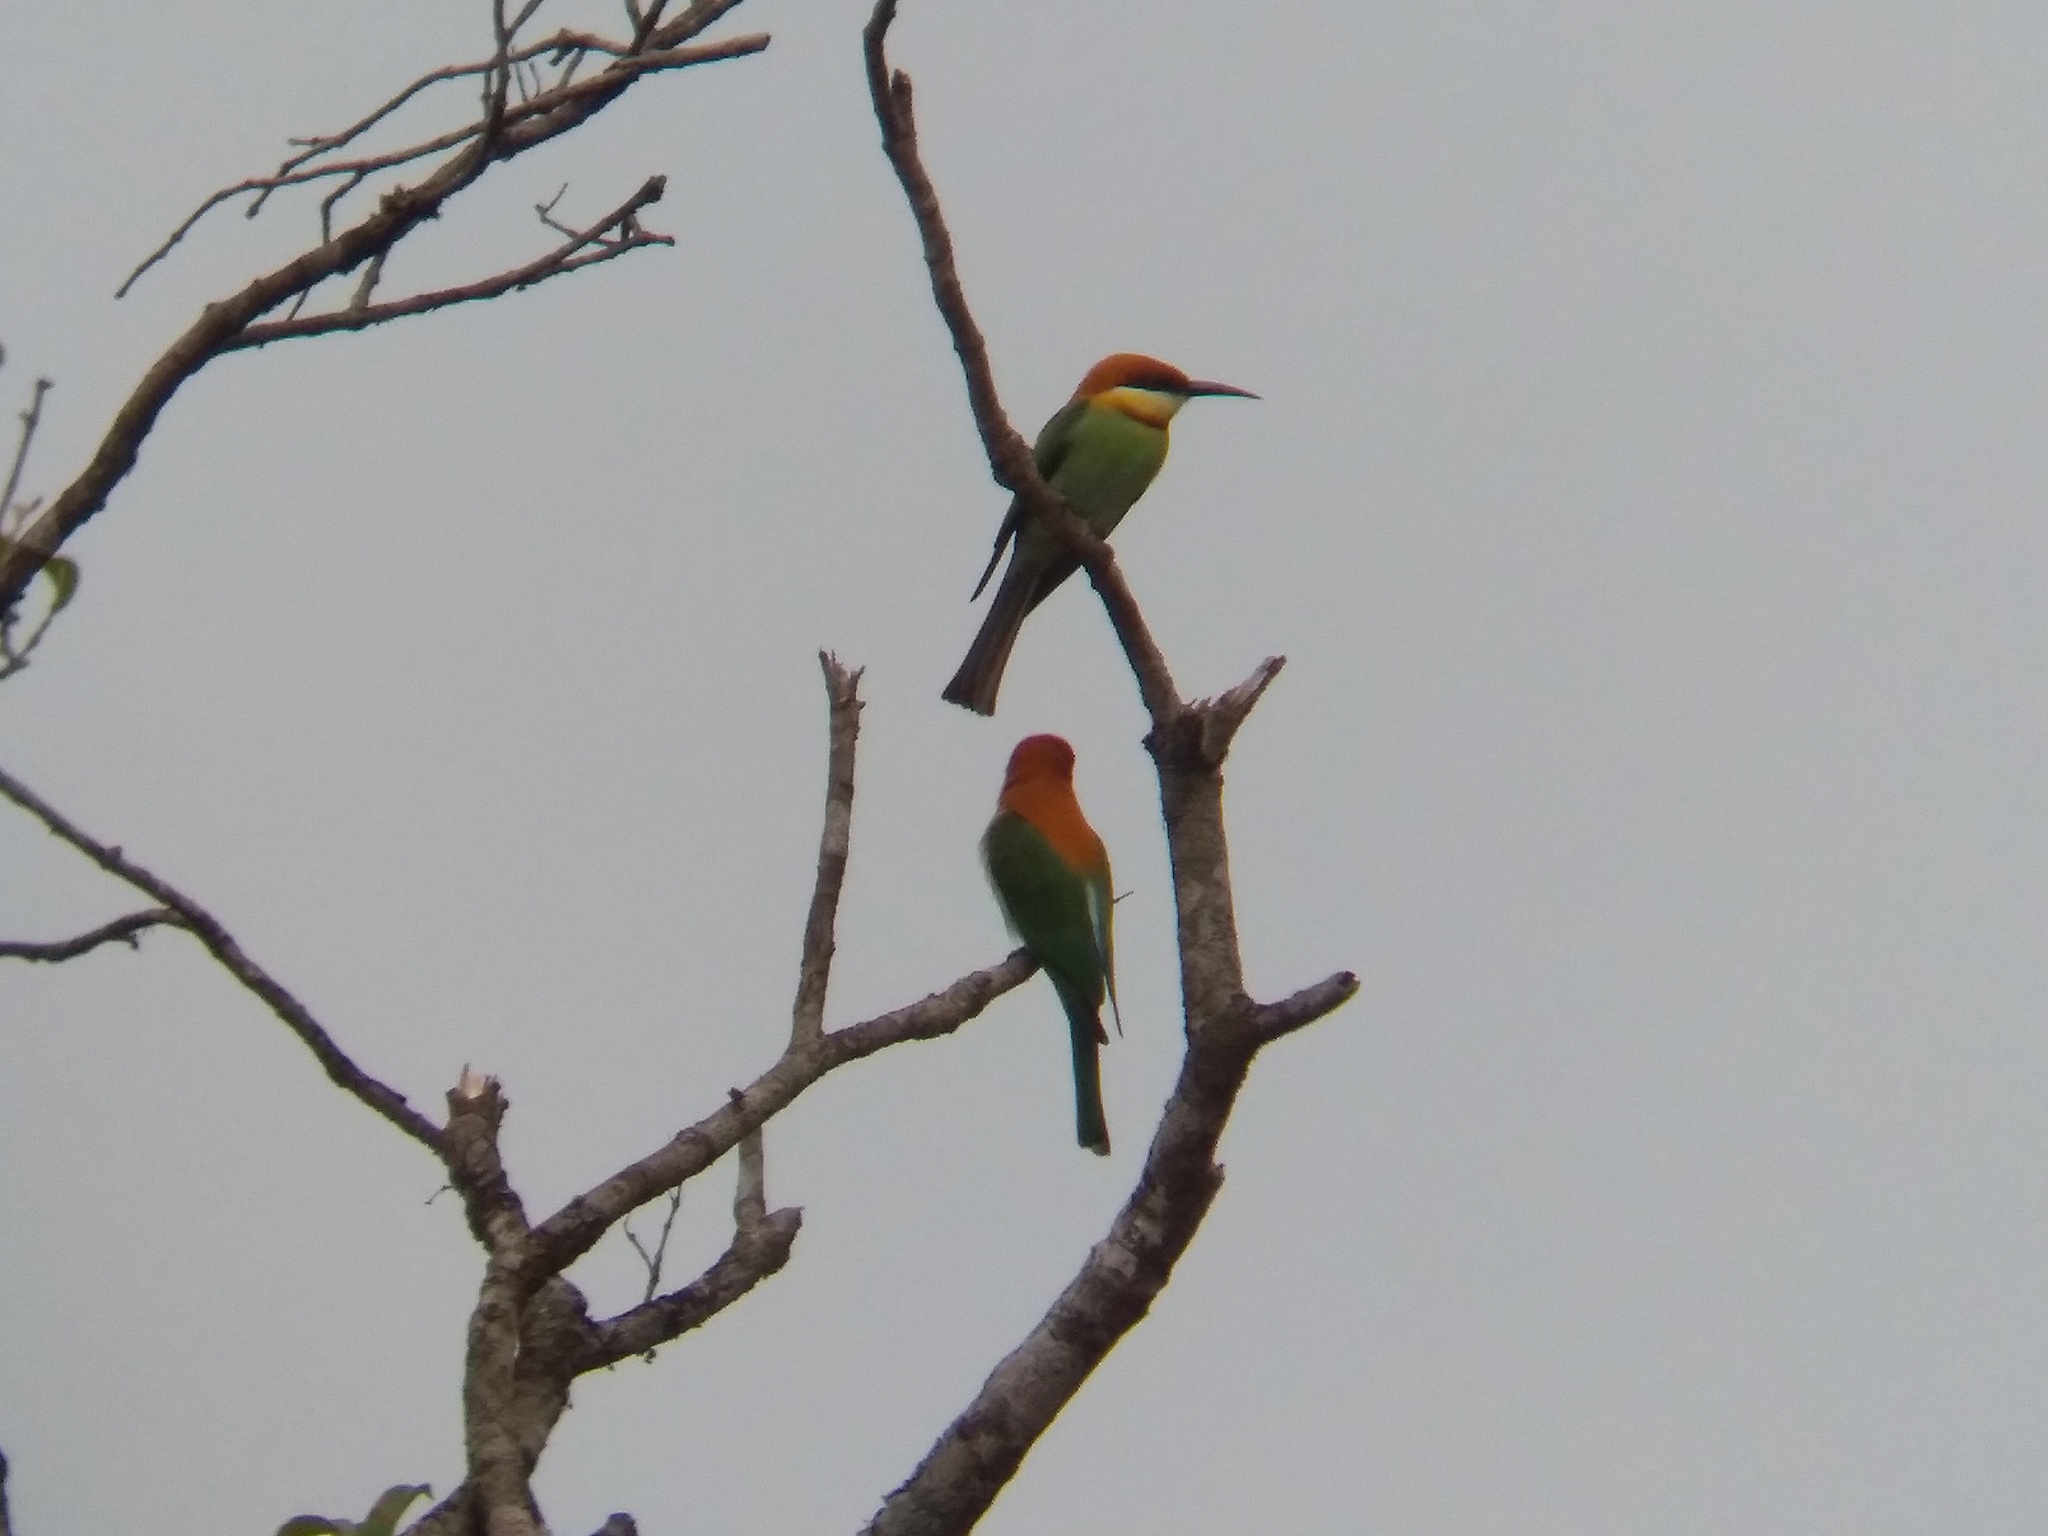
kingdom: Animalia
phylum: Chordata
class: Aves
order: Coraciiformes
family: Meropidae
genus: Merops
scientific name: Merops leschenaulti
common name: Chestnut-headed bee-eater
